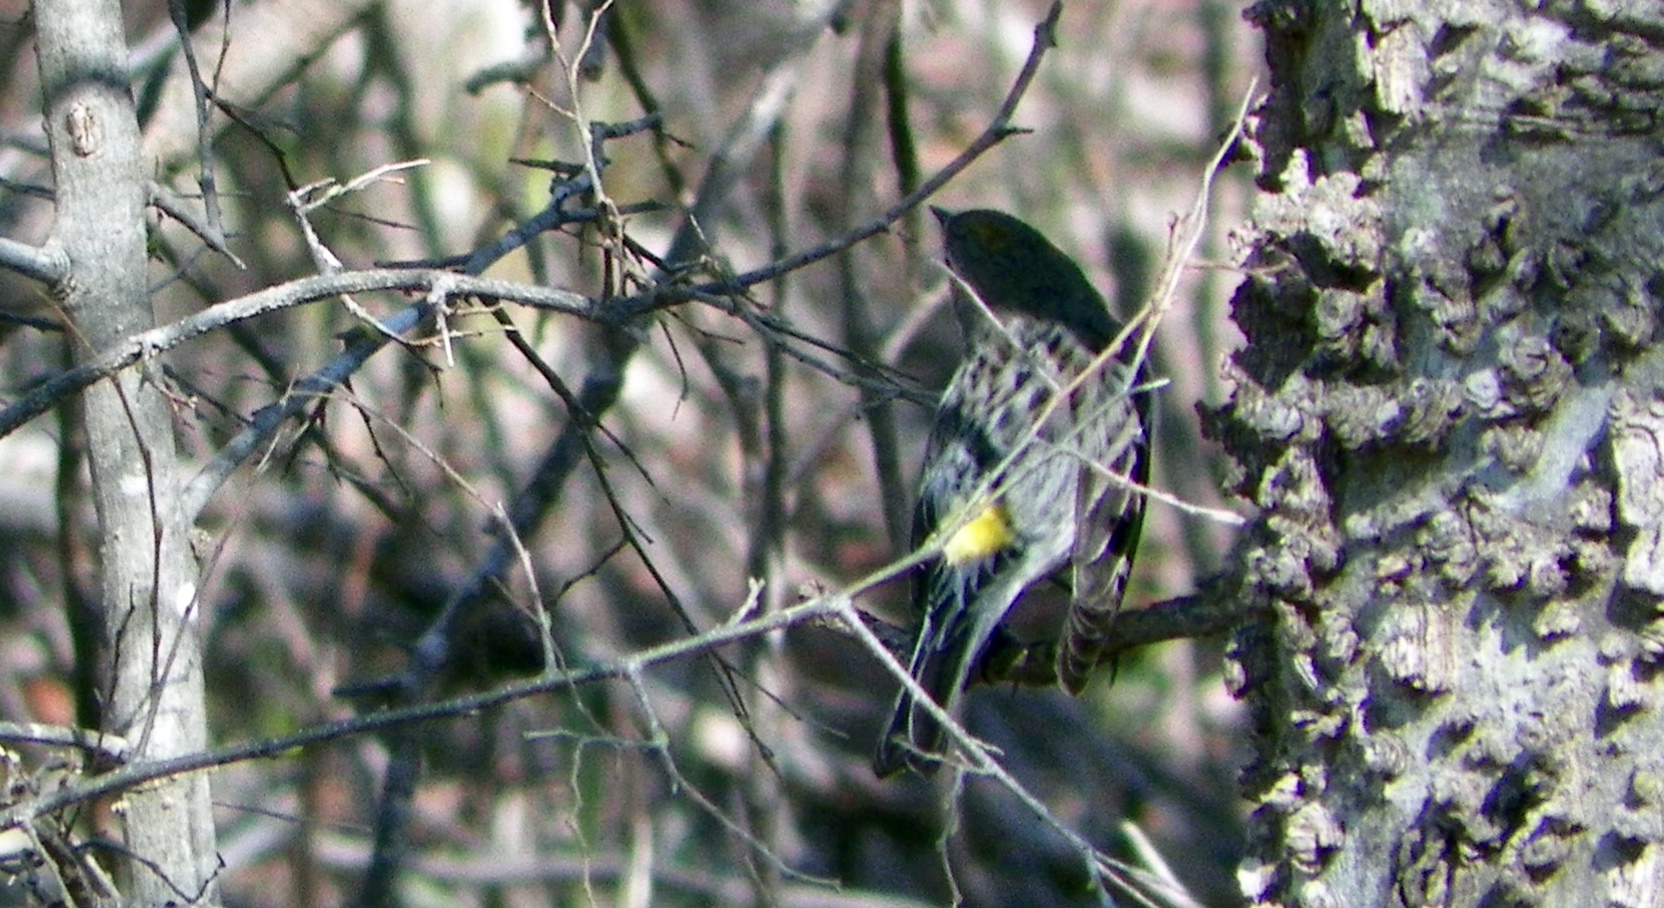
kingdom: Animalia
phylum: Chordata
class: Aves
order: Passeriformes
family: Parulidae
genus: Setophaga
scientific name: Setophaga coronata
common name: Myrtle warbler
